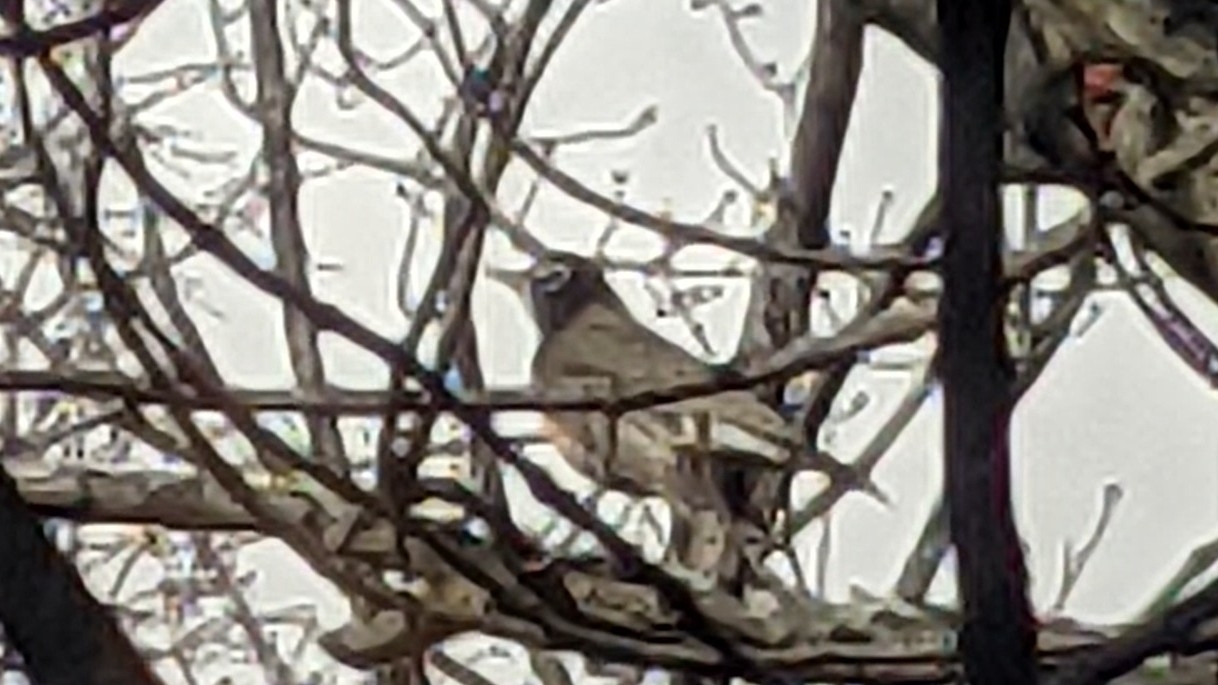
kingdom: Animalia
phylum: Chordata
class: Aves
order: Passeriformes
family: Turdidae
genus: Turdus
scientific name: Turdus migratorius
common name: American robin
